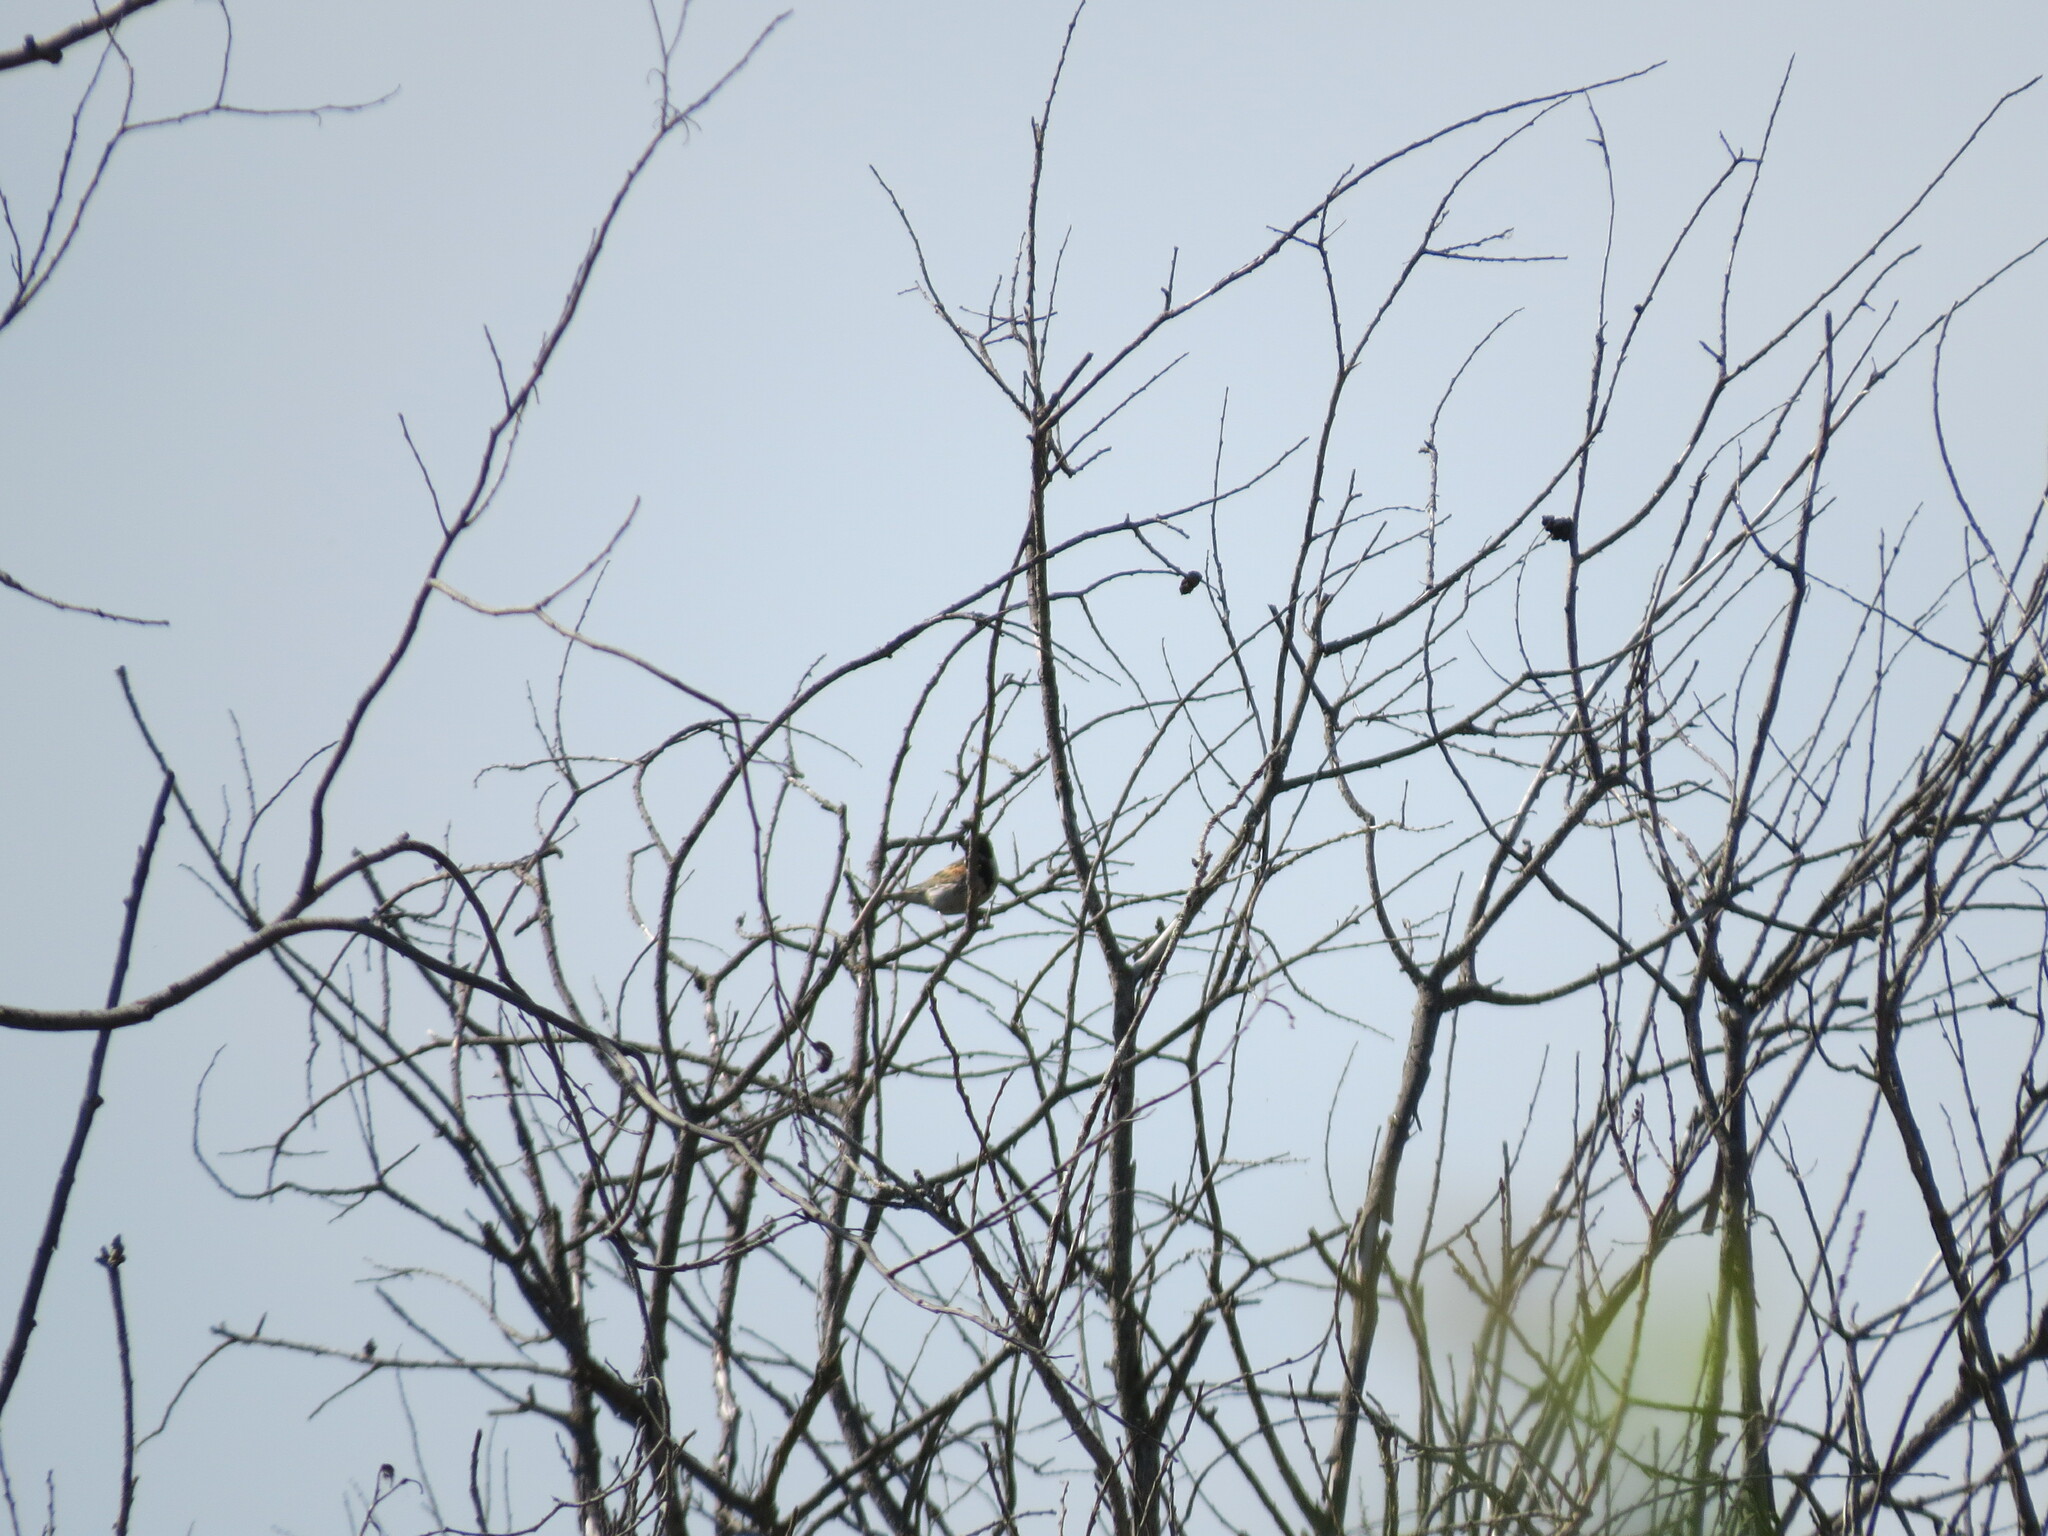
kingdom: Animalia
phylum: Chordata
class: Aves
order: Passeriformes
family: Emberizidae
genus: Emberiza
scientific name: Emberiza schoeniclus
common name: Reed bunting
